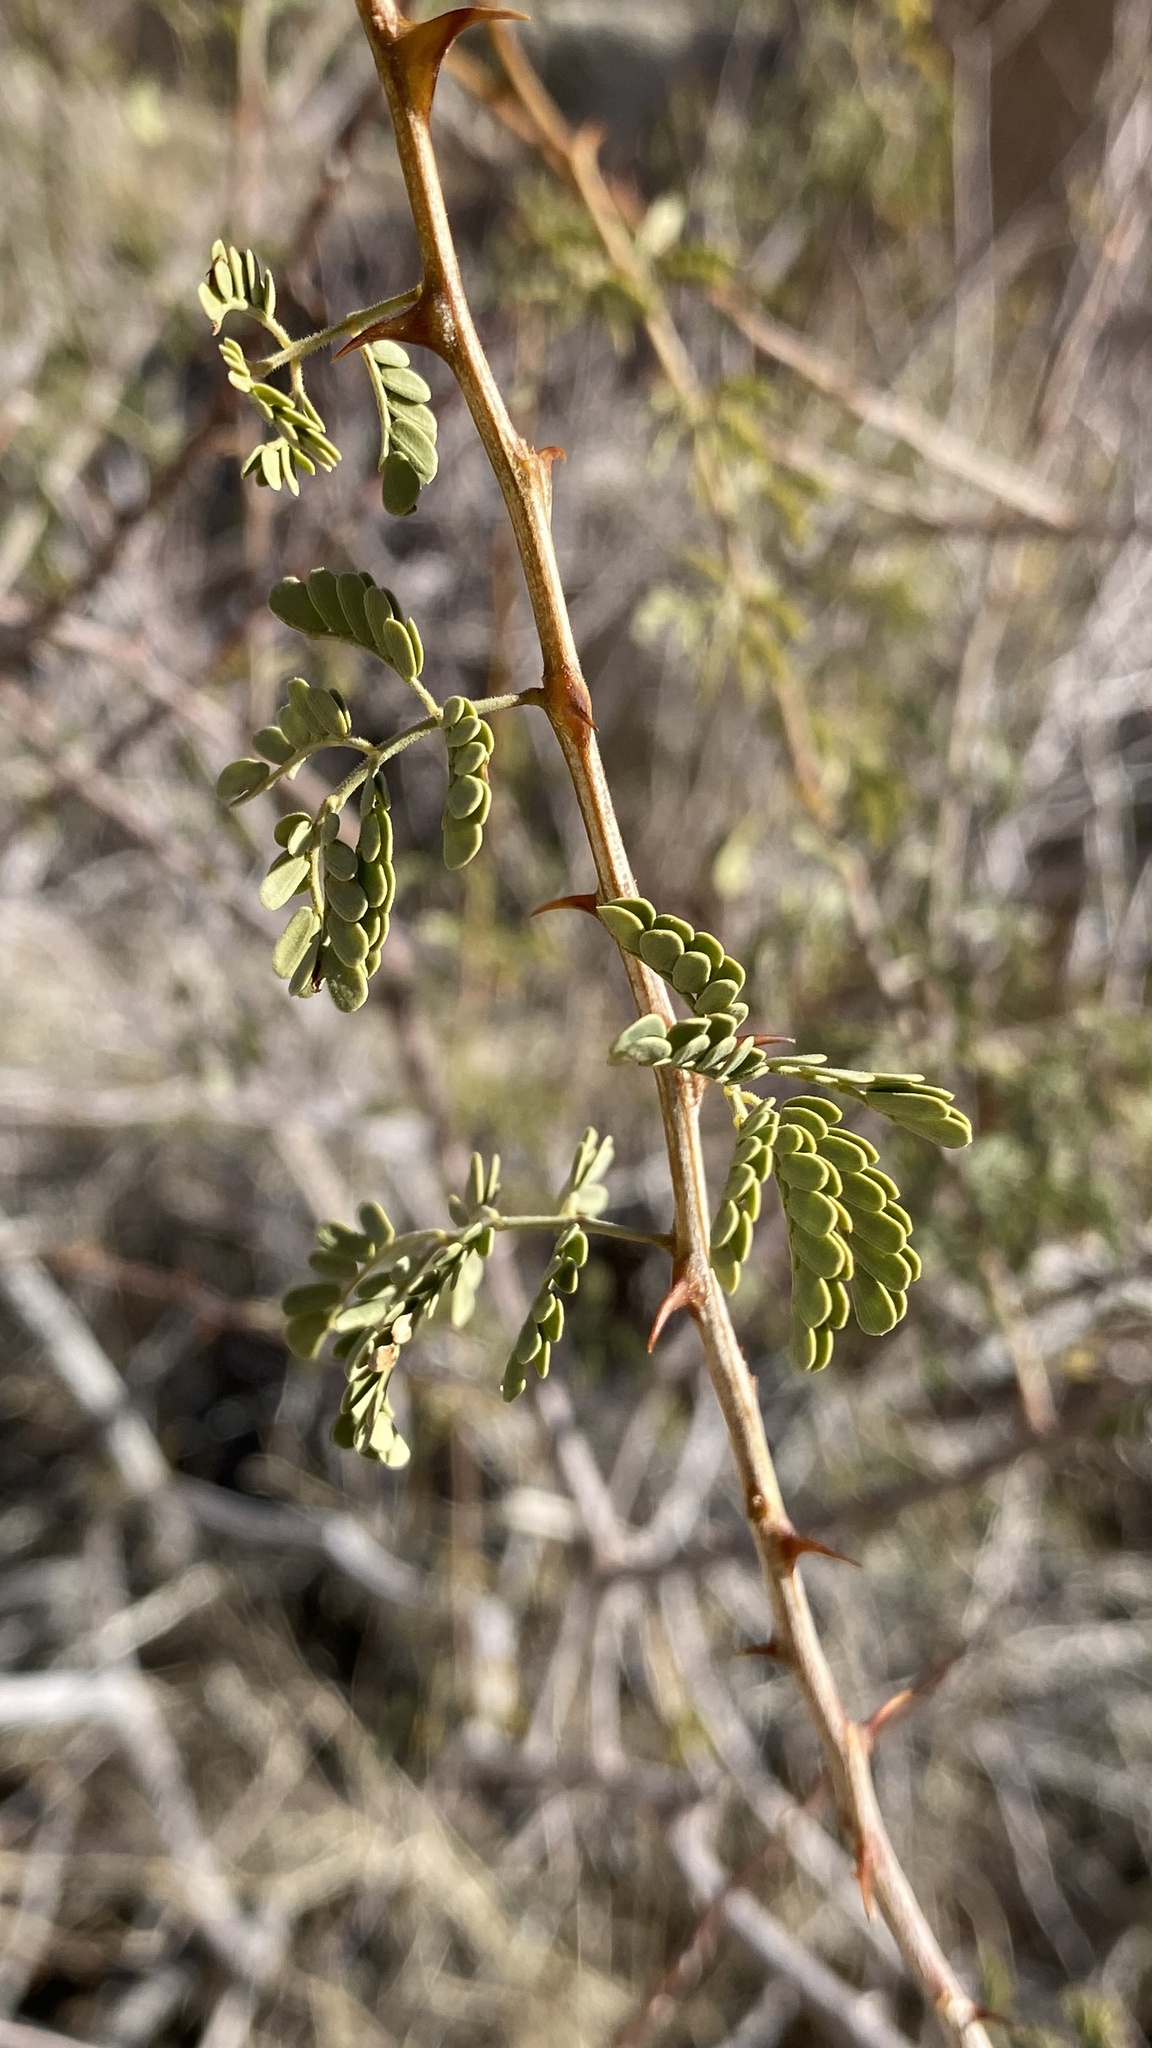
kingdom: Plantae
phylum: Tracheophyta
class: Magnoliopsida
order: Fabales
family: Fabaceae
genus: Senegalia
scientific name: Senegalia greggii
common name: Texas-mimosa
